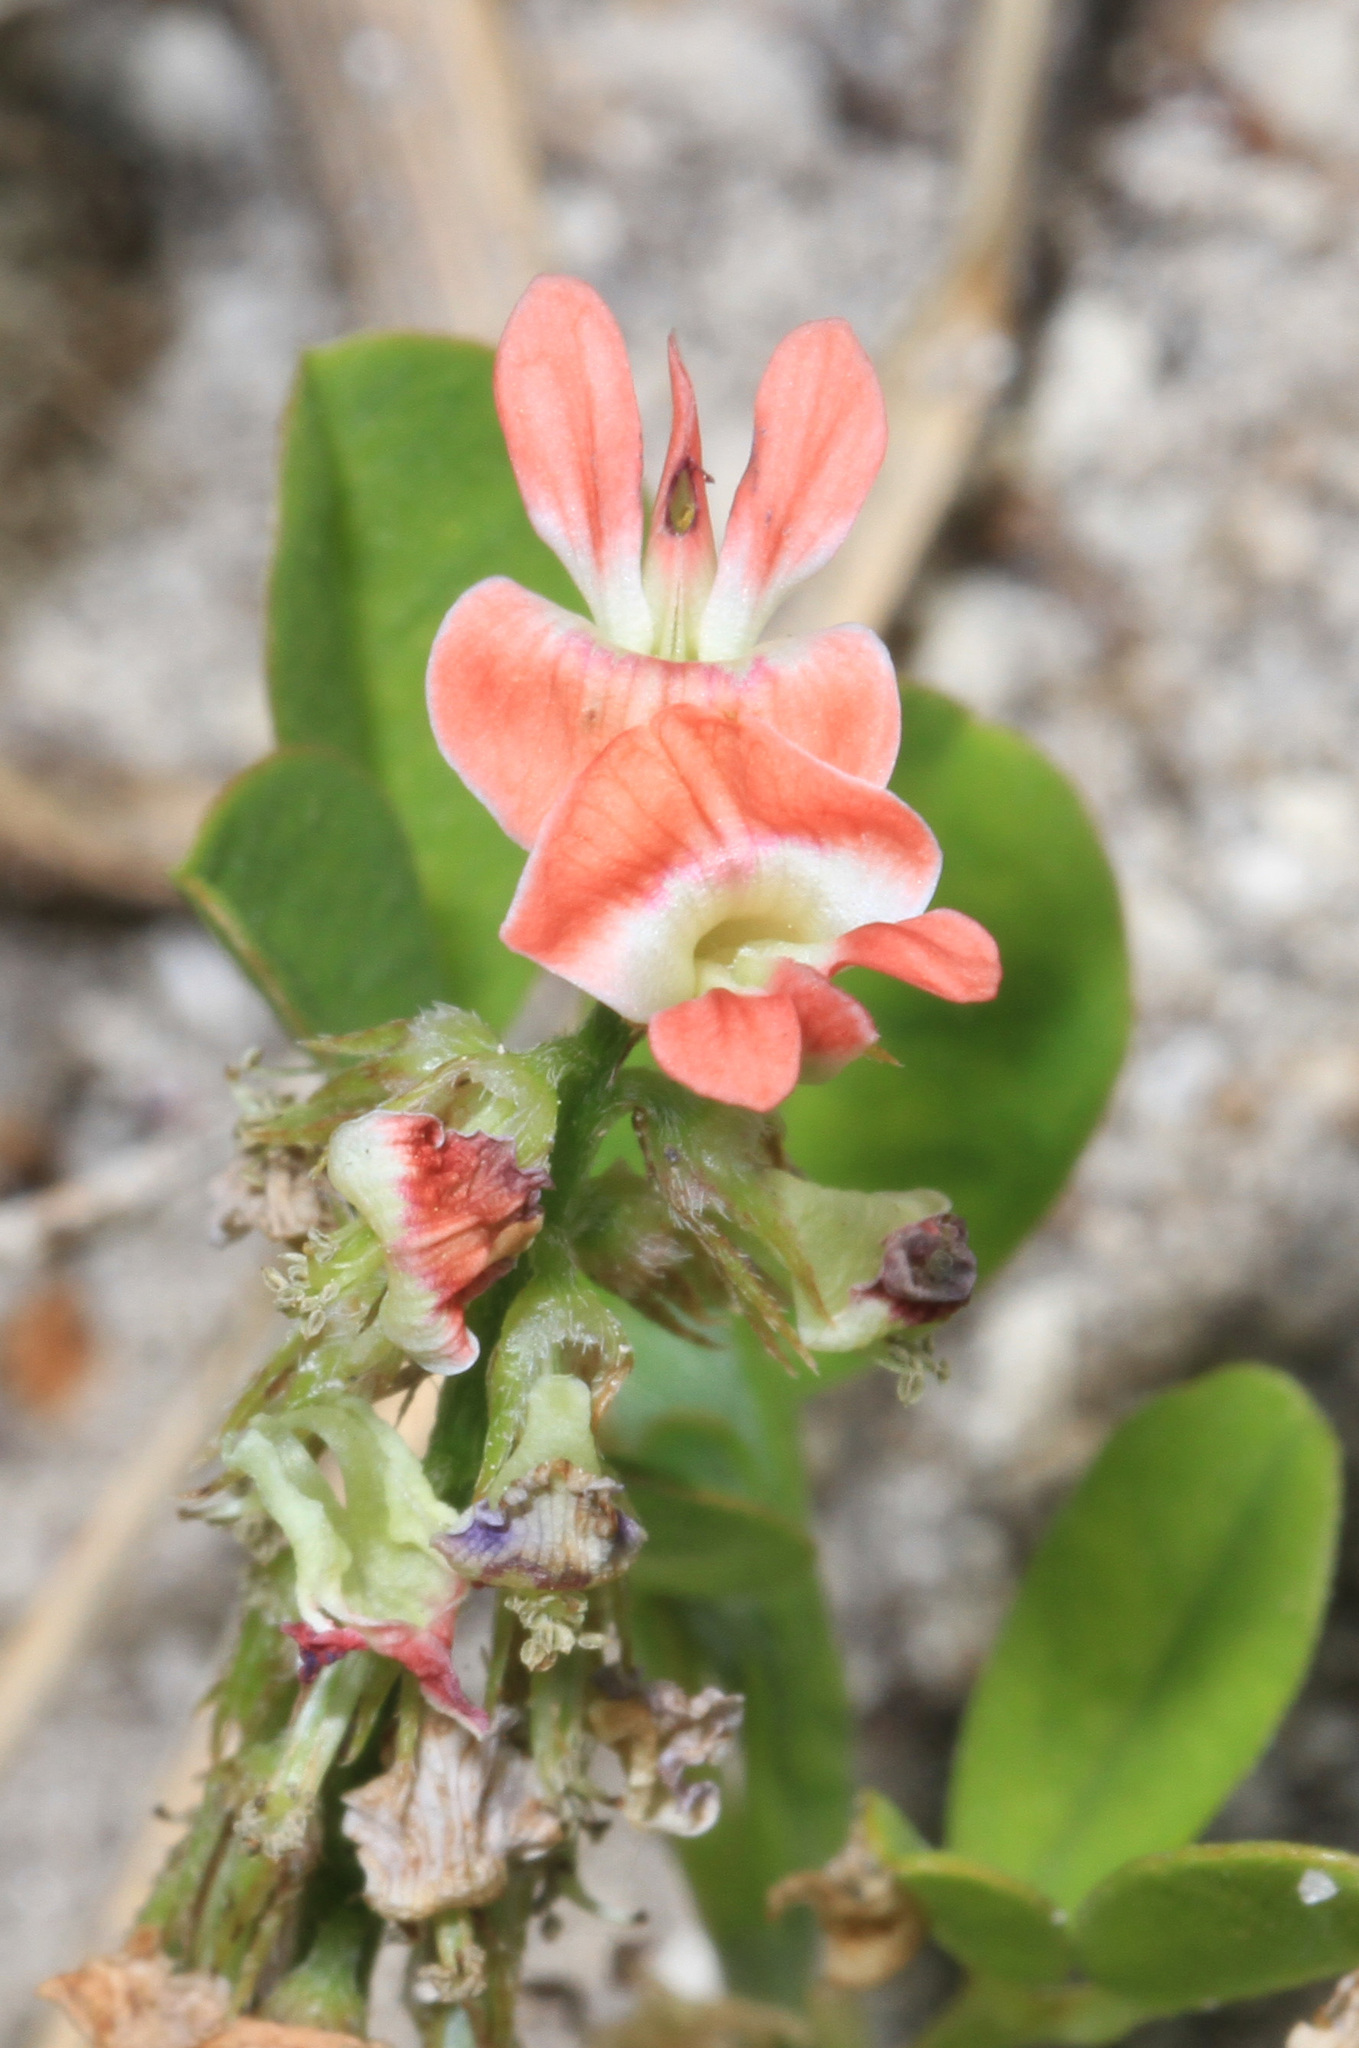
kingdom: Plantae
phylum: Tracheophyta
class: Magnoliopsida
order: Fabales
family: Fabaceae
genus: Indigofera
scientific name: Indigofera spicata
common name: Creeping indigo
